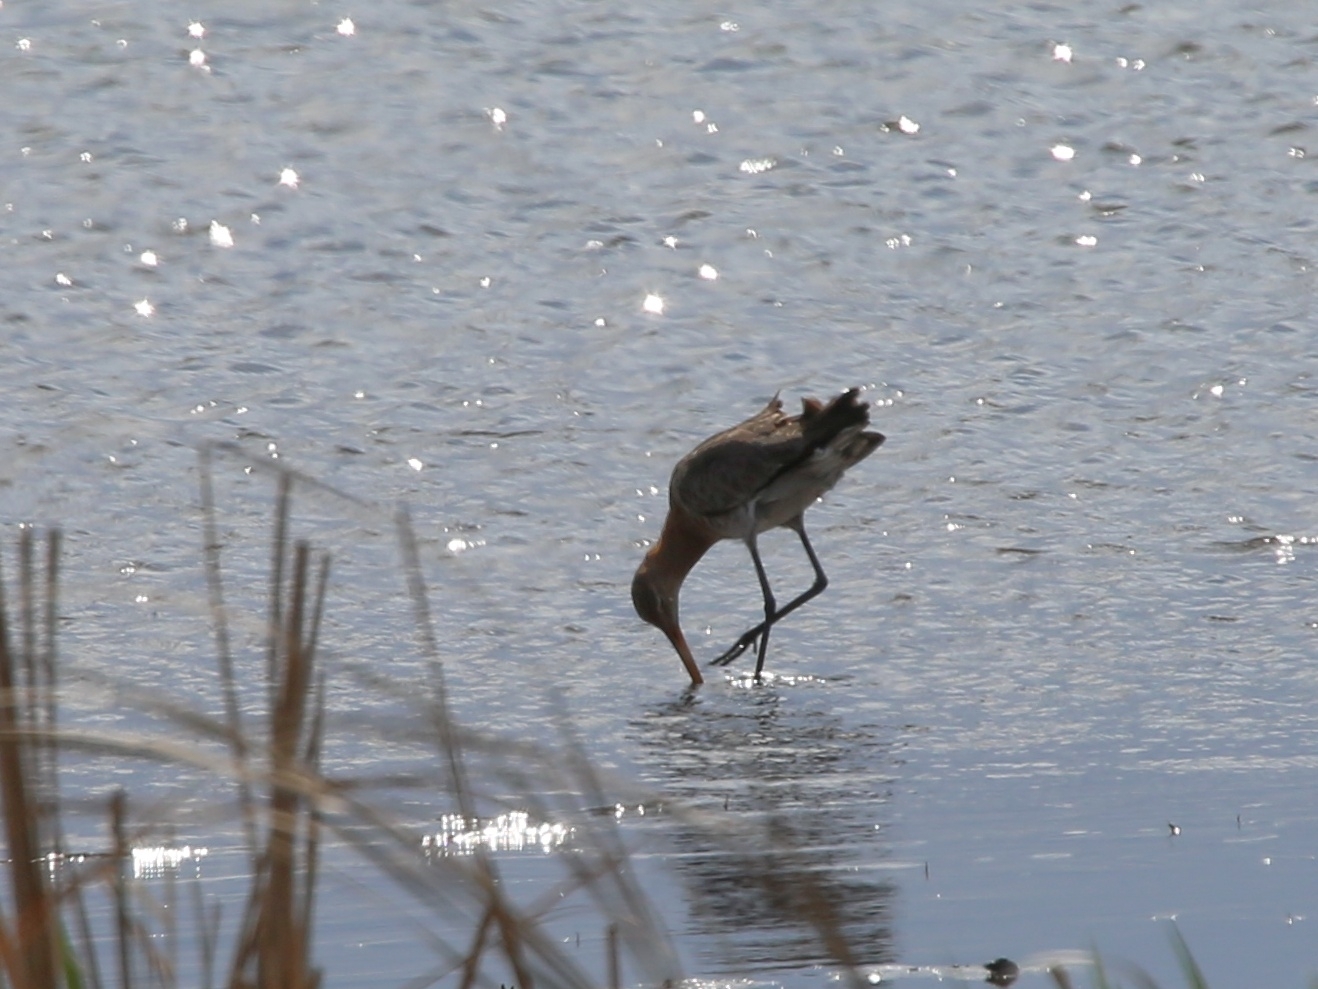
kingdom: Animalia
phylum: Chordata
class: Aves
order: Charadriiformes
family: Scolopacidae
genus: Limosa
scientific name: Limosa limosa
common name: Black-tailed godwit
